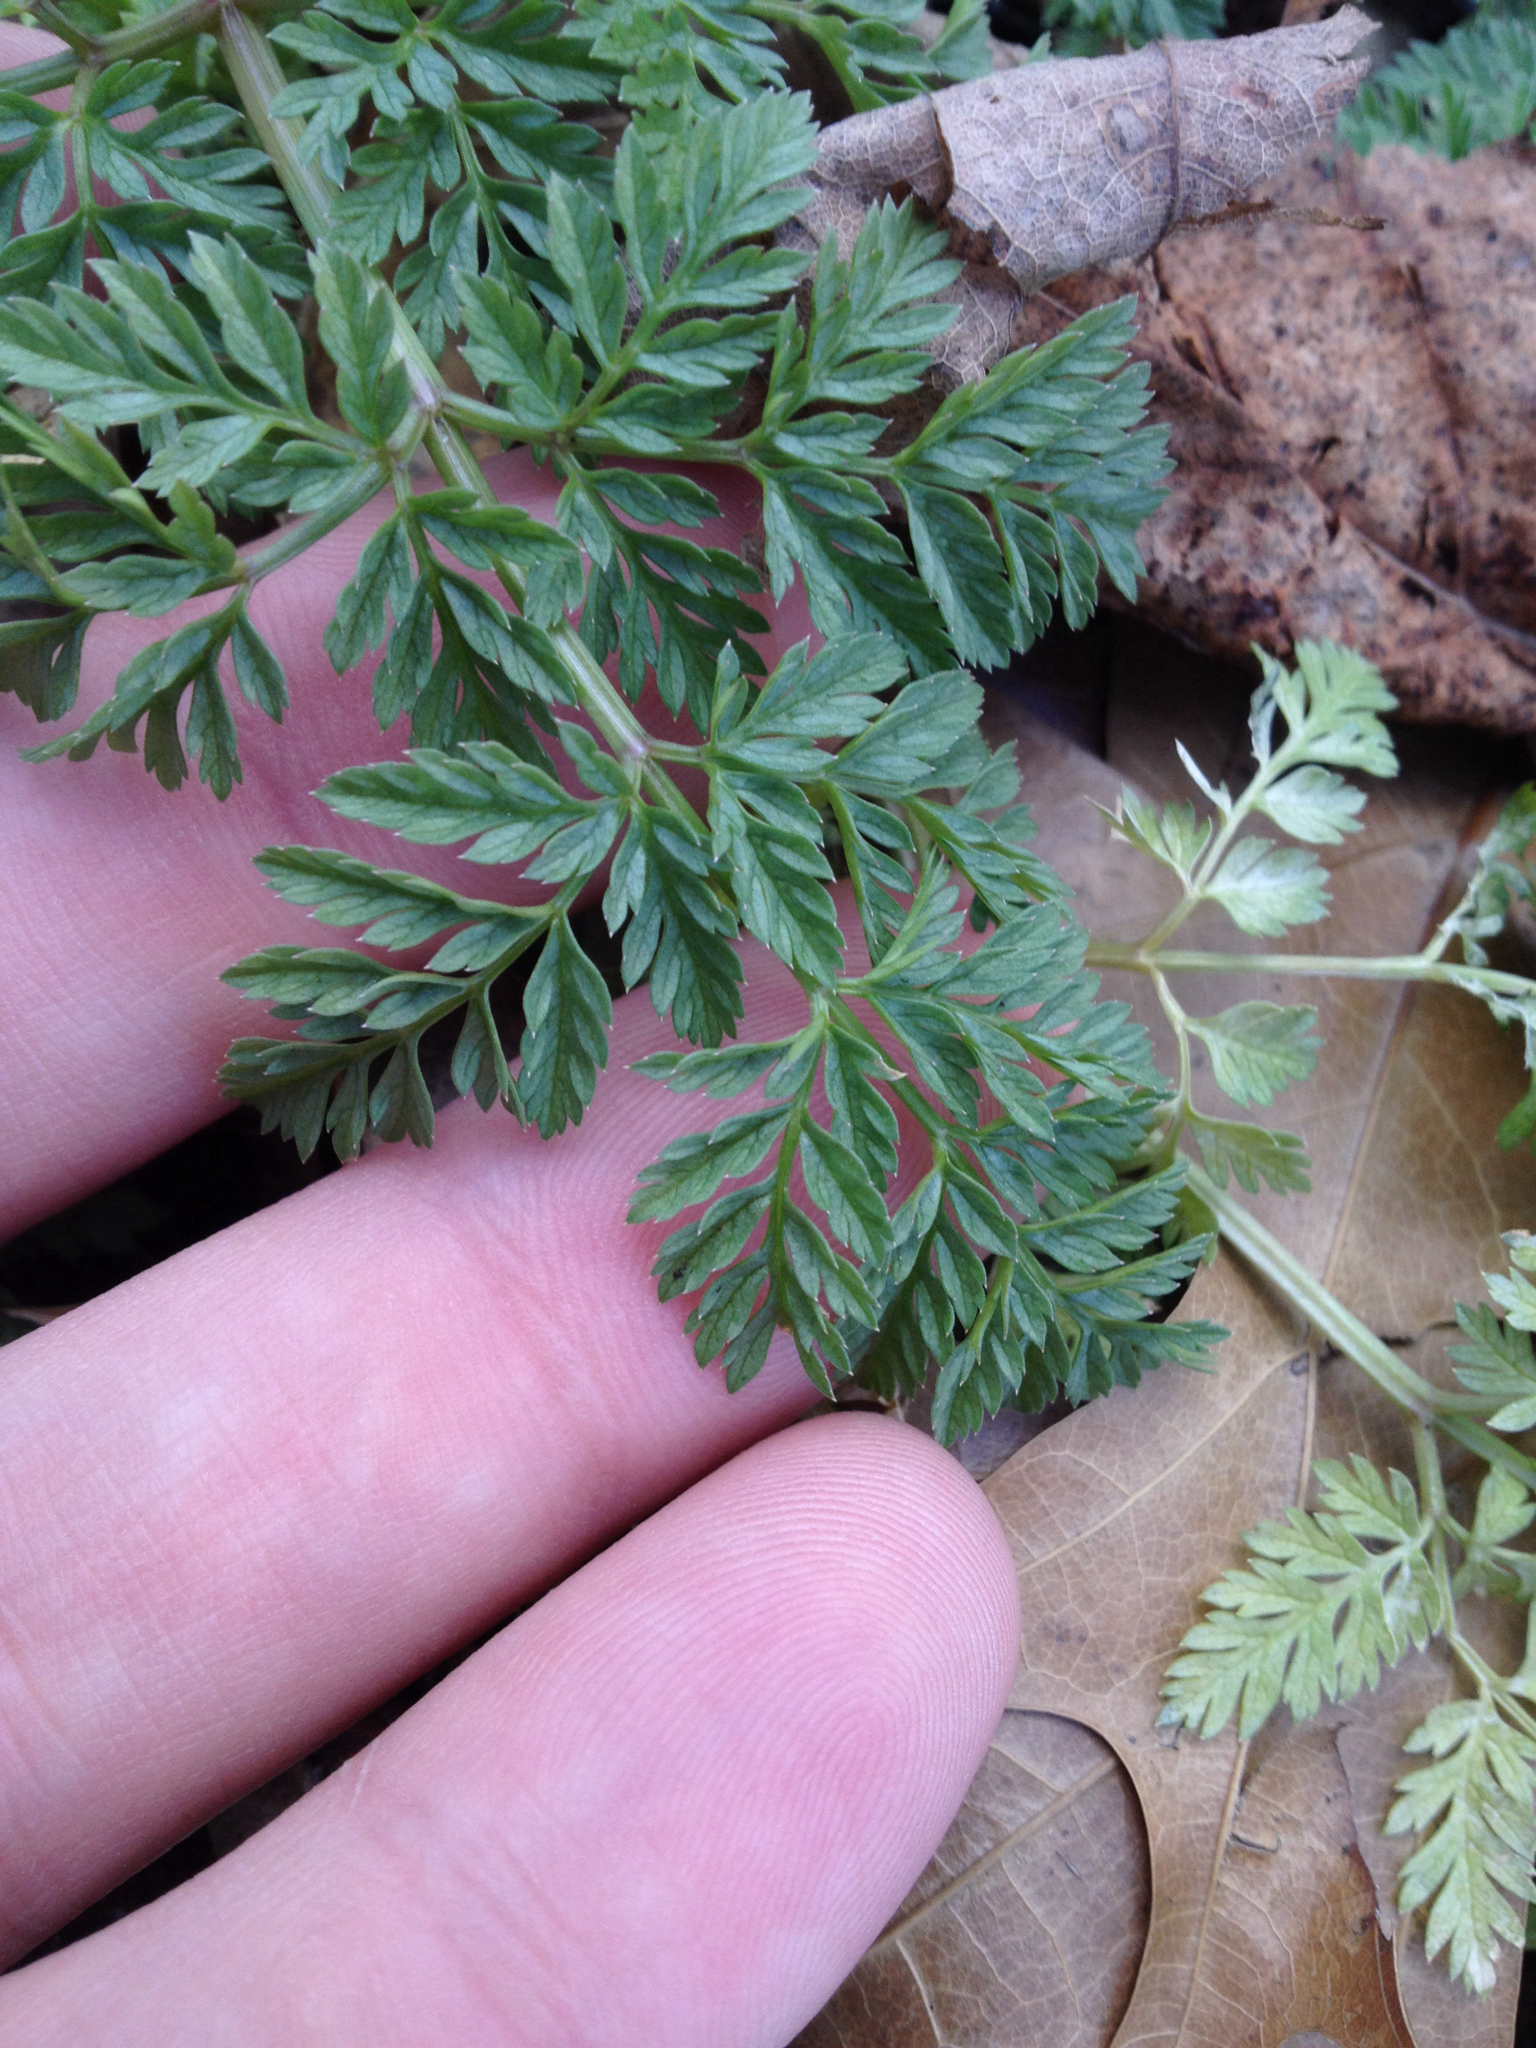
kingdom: Plantae
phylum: Tracheophyta
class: Magnoliopsida
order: Apiales
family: Apiaceae
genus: Conium
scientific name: Conium maculatum
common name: Hemlock
